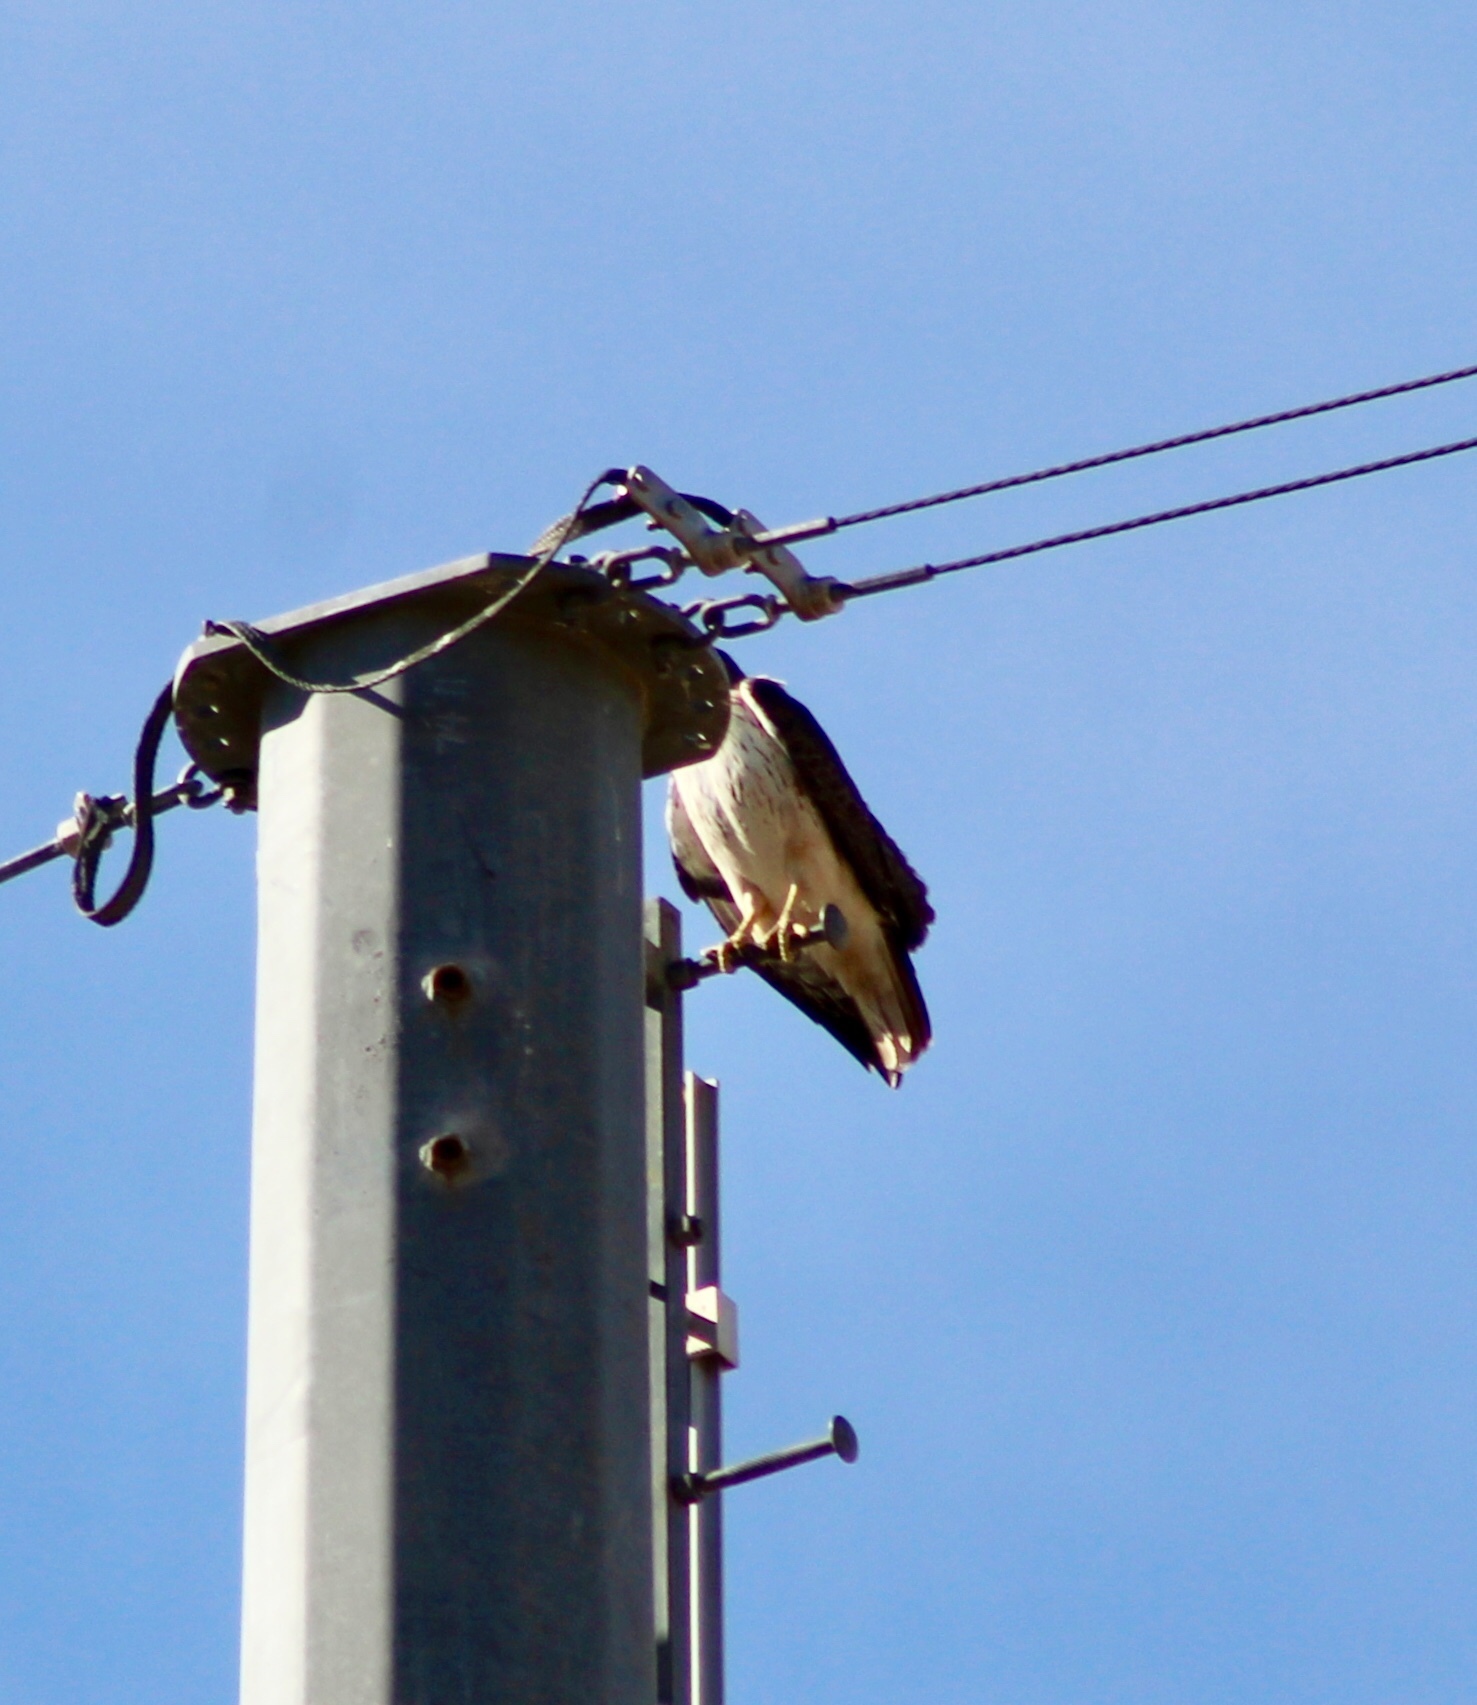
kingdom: Animalia
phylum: Chordata
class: Aves
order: Accipitriformes
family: Accipitridae
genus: Buteo
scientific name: Buteo jamaicensis
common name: Red-tailed hawk
